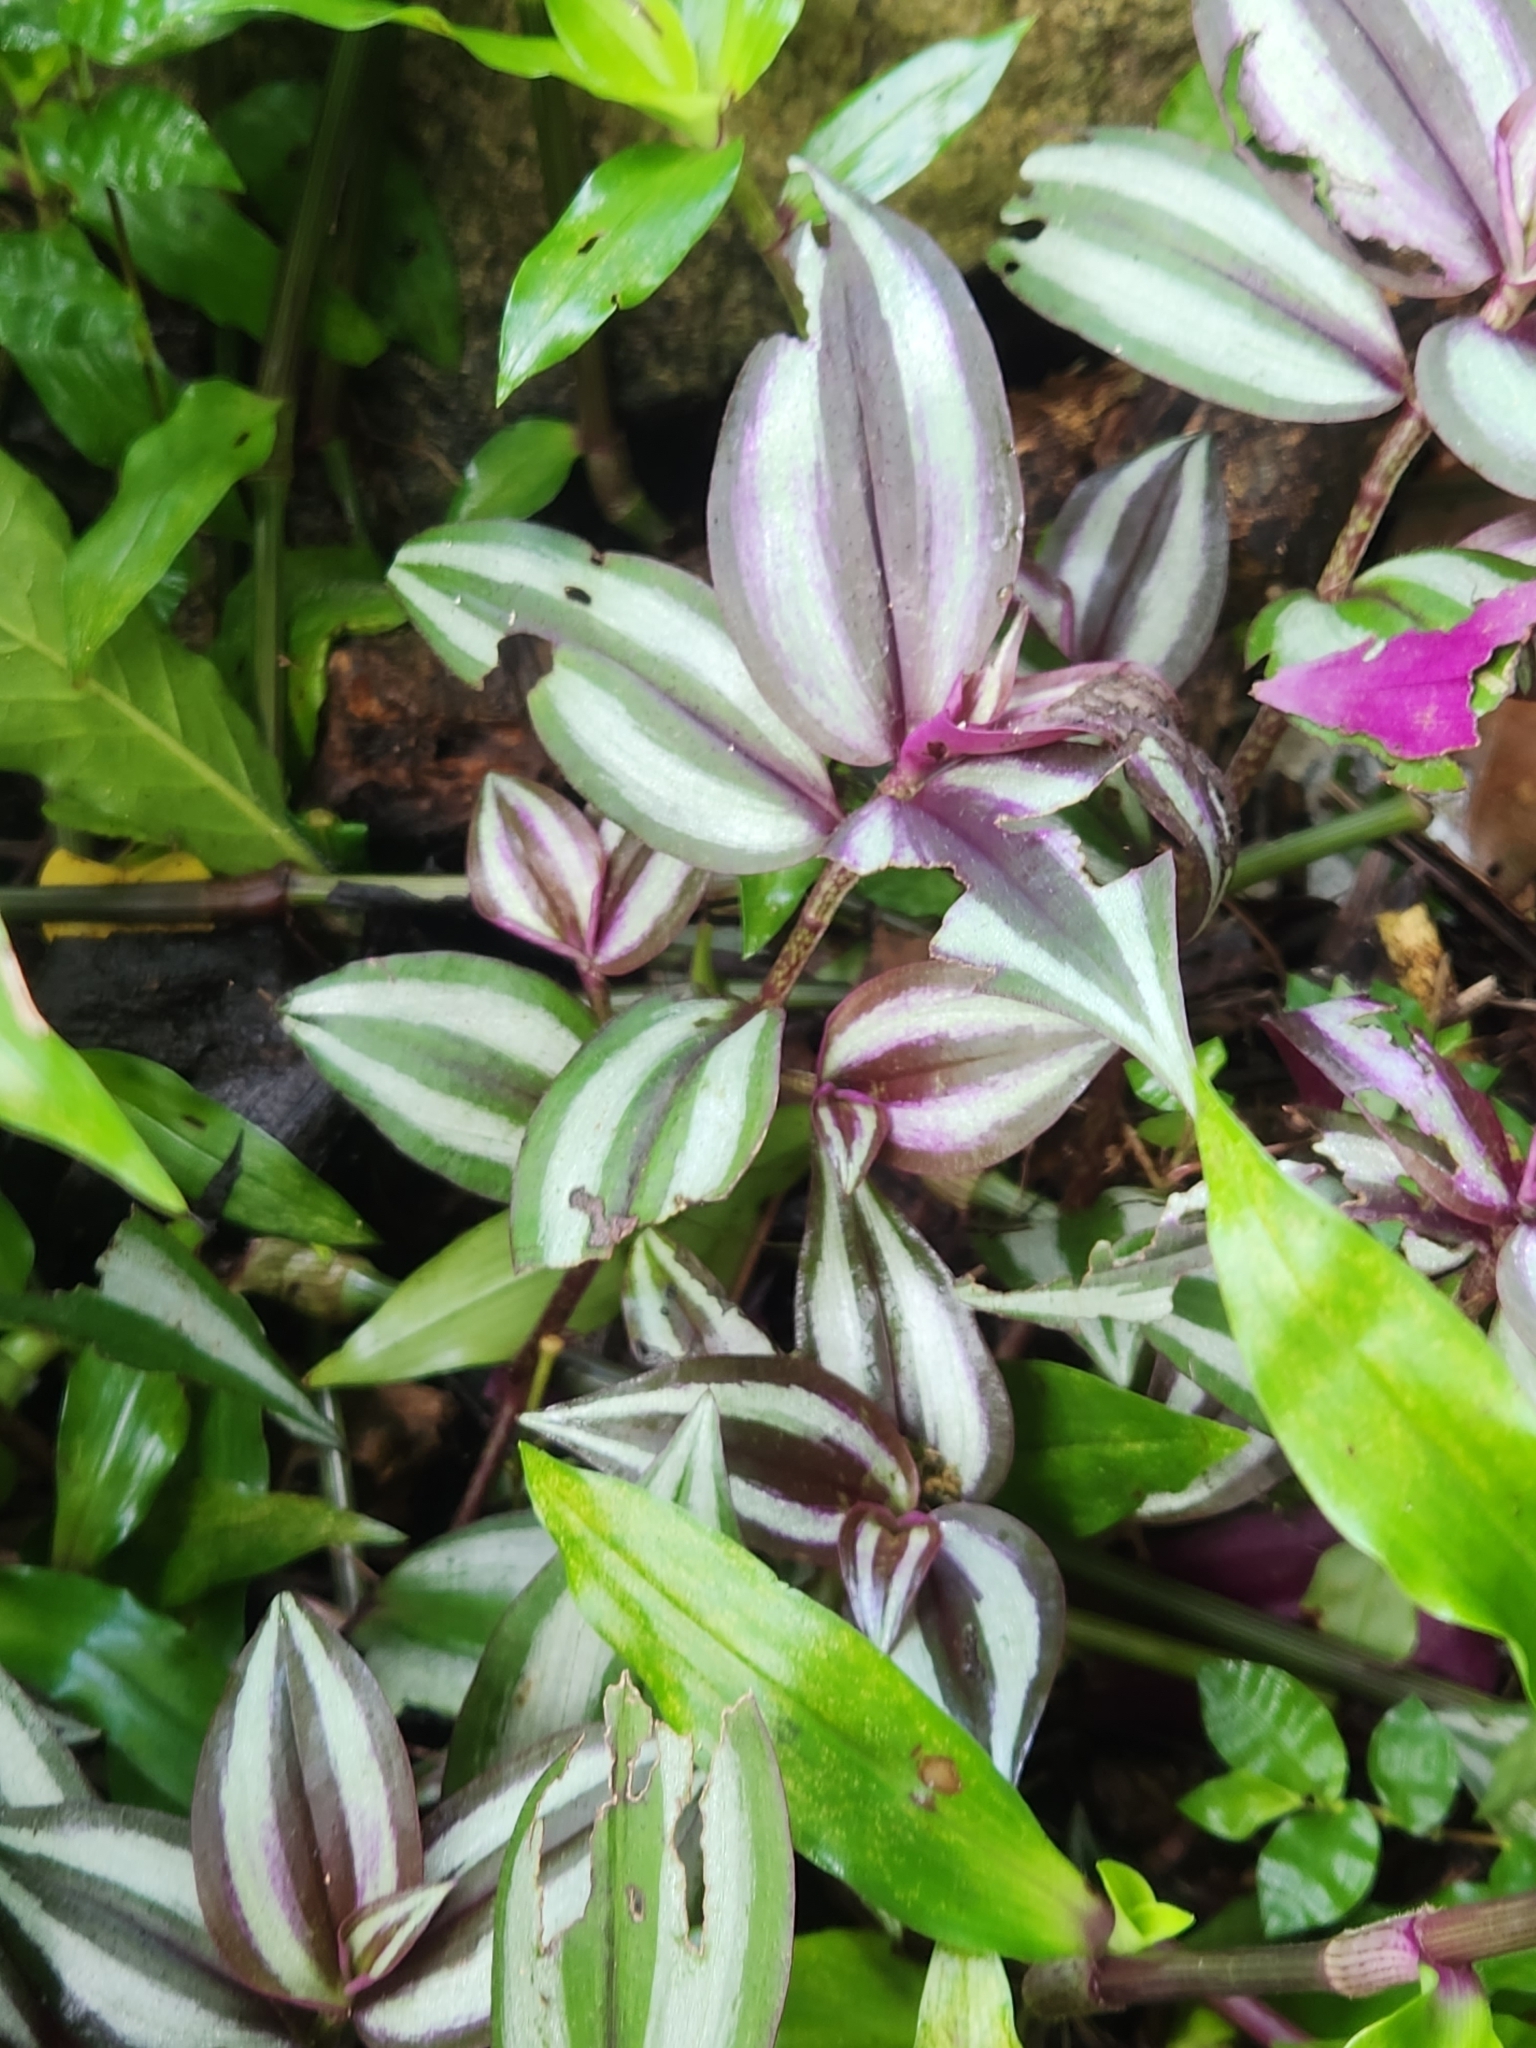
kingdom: Plantae
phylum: Tracheophyta
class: Liliopsida
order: Commelinales
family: Commelinaceae
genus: Tradescantia
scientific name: Tradescantia zebrina
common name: Inchplant
